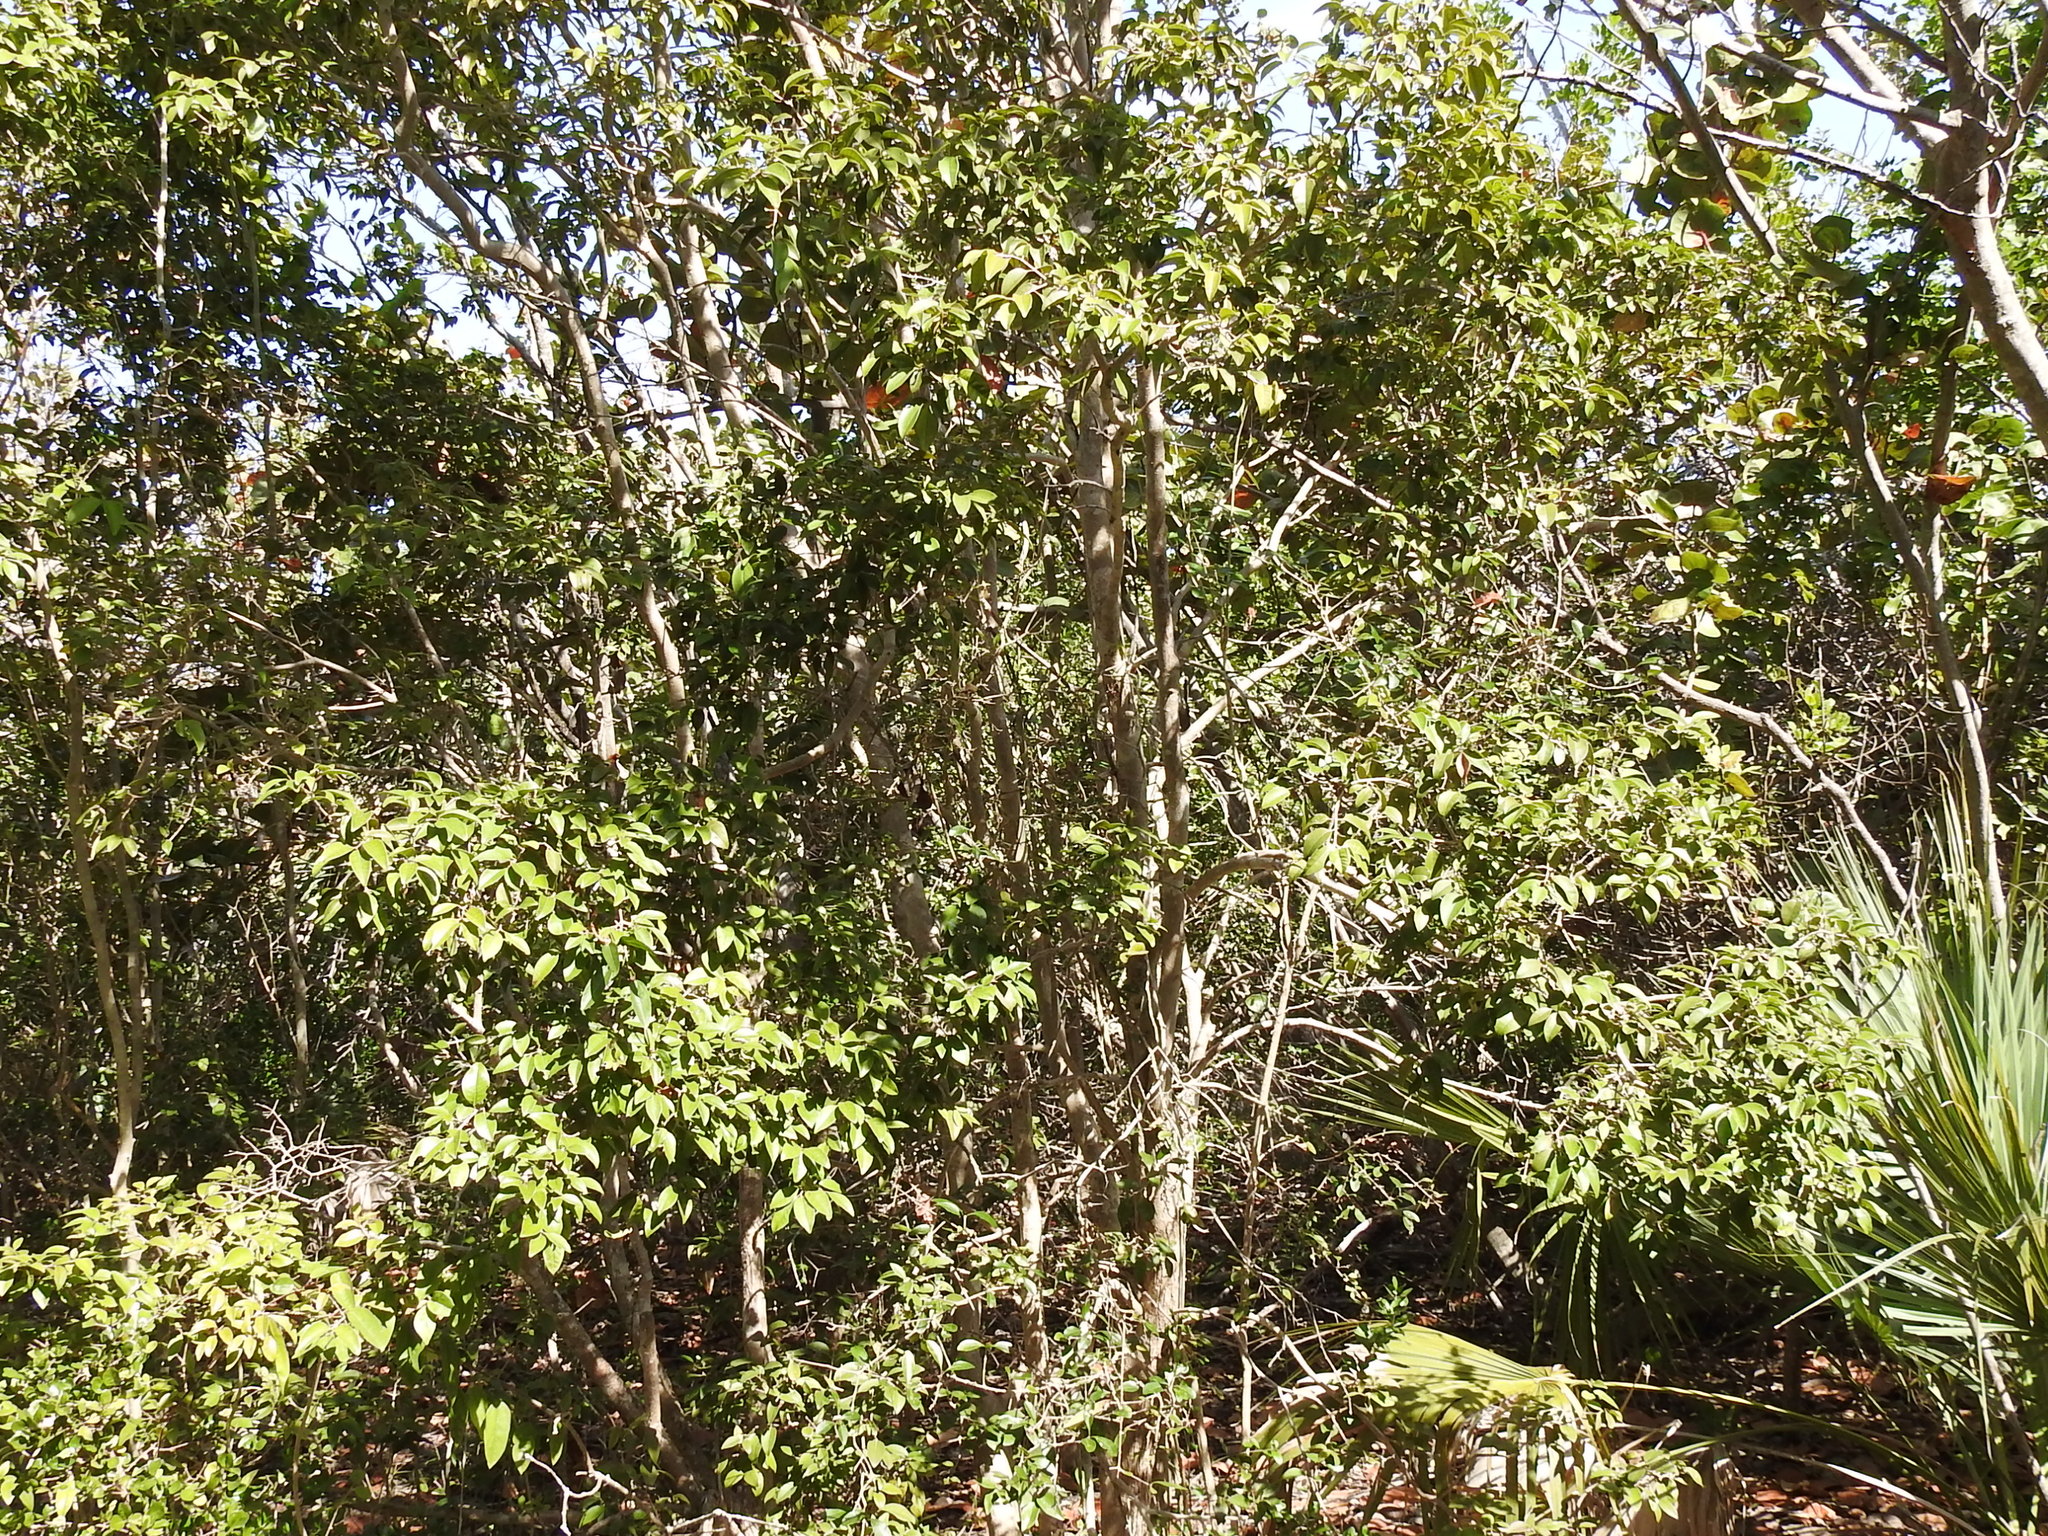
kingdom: Plantae
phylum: Tracheophyta
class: Magnoliopsida
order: Myrtales
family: Myrtaceae
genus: Eugenia
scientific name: Eugenia axillaris
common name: Choaky berry
